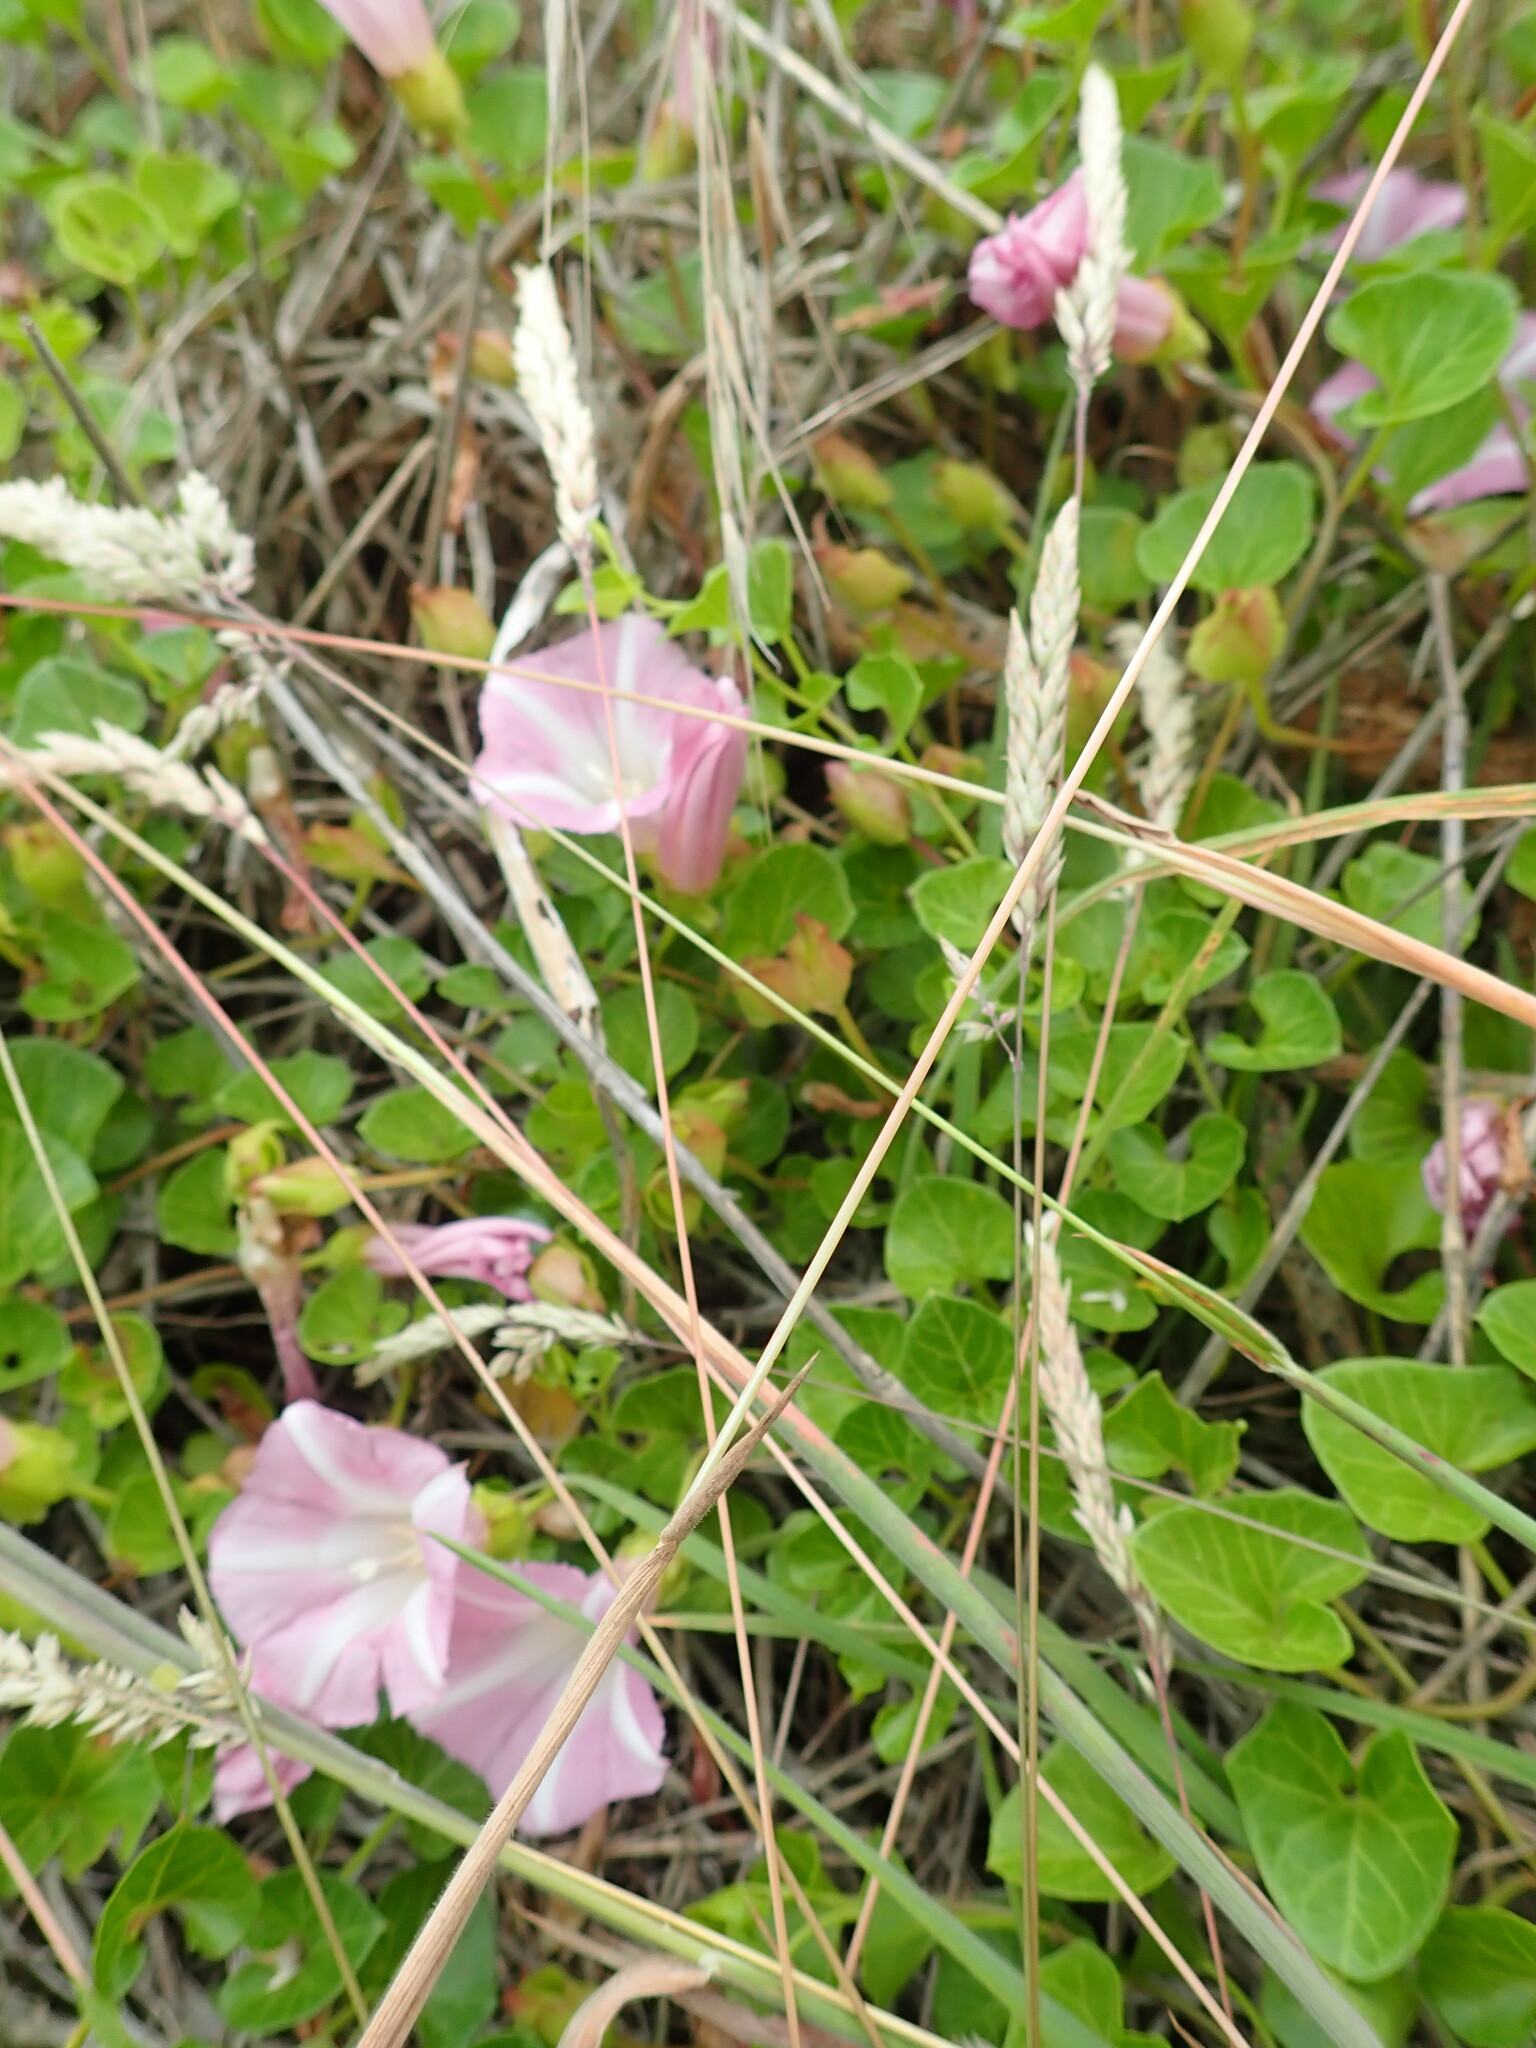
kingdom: Plantae
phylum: Tracheophyta
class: Magnoliopsida
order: Solanales
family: Convolvulaceae
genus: Calystegia
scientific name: Calystegia soldanella
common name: Sea bindweed
